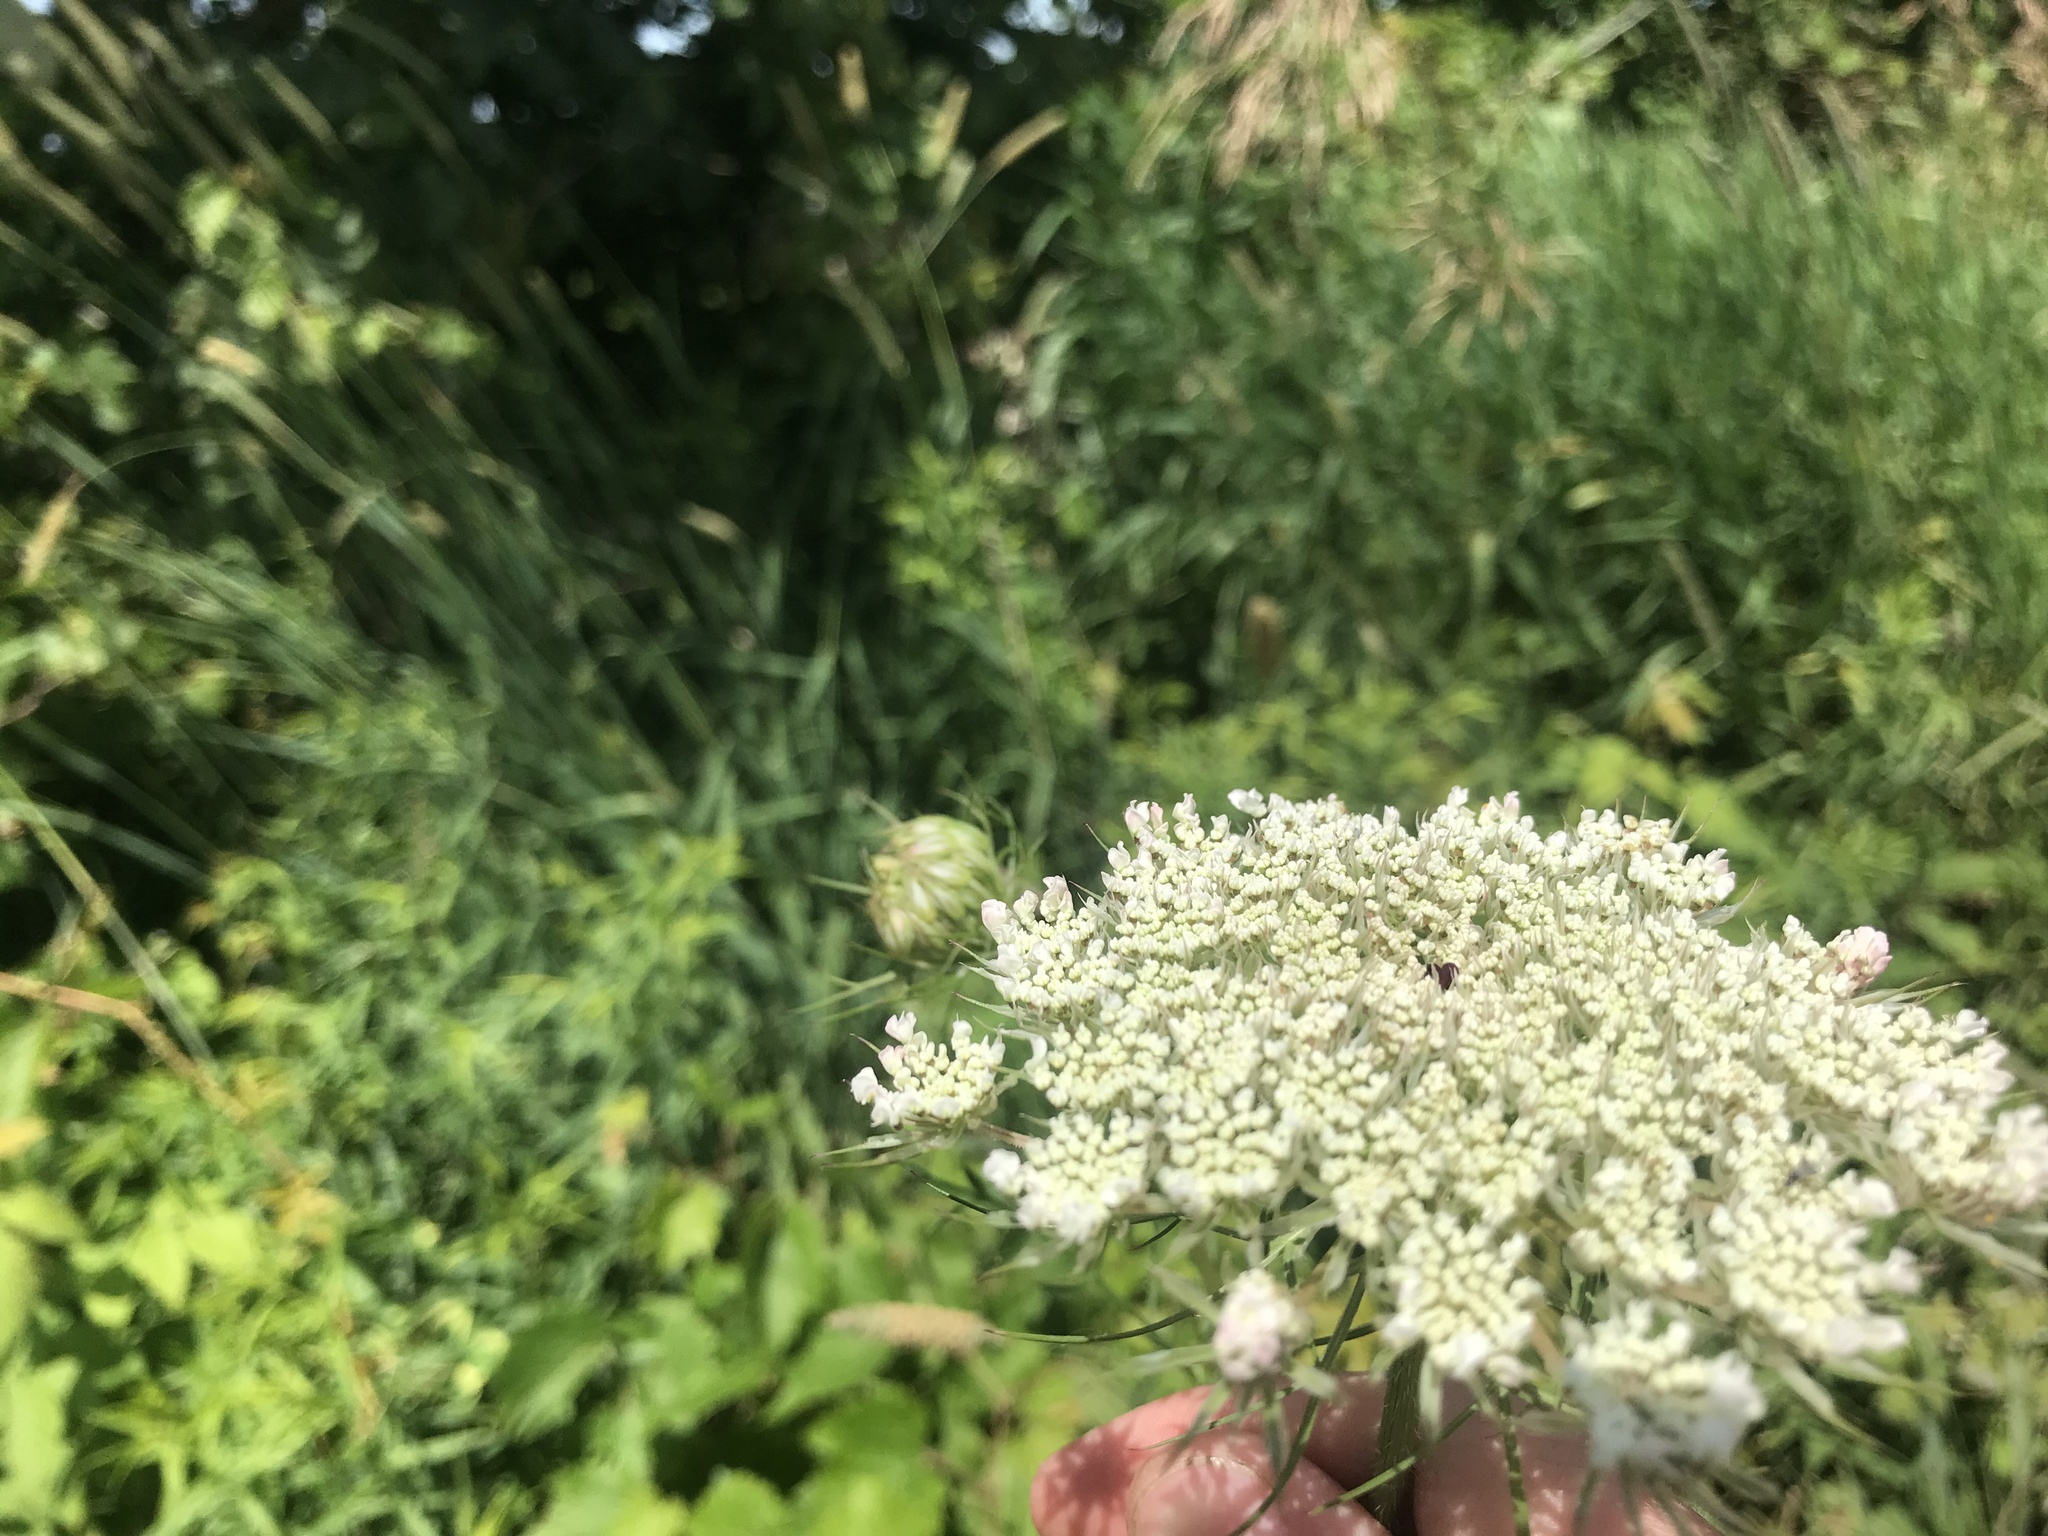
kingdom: Plantae
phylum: Tracheophyta
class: Magnoliopsida
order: Apiales
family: Apiaceae
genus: Daucus
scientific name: Daucus carota
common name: Wild carrot
